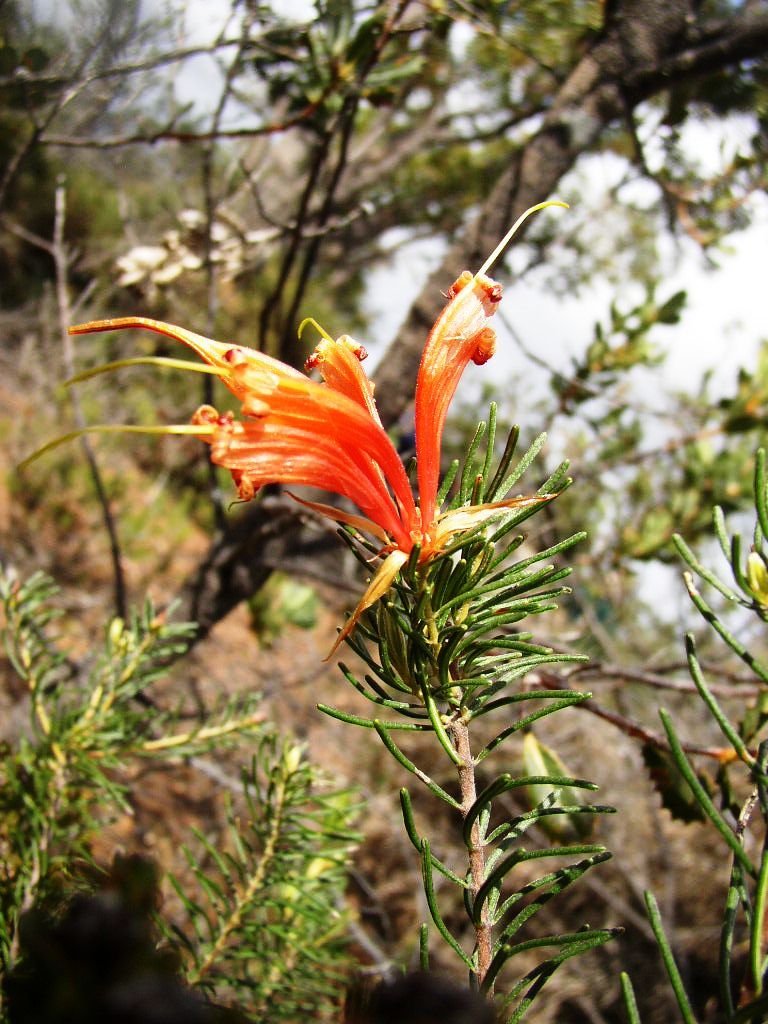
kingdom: Plantae
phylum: Tracheophyta
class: Magnoliopsida
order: Proteales
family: Proteaceae
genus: Lambertia
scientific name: Lambertia ericifolia
